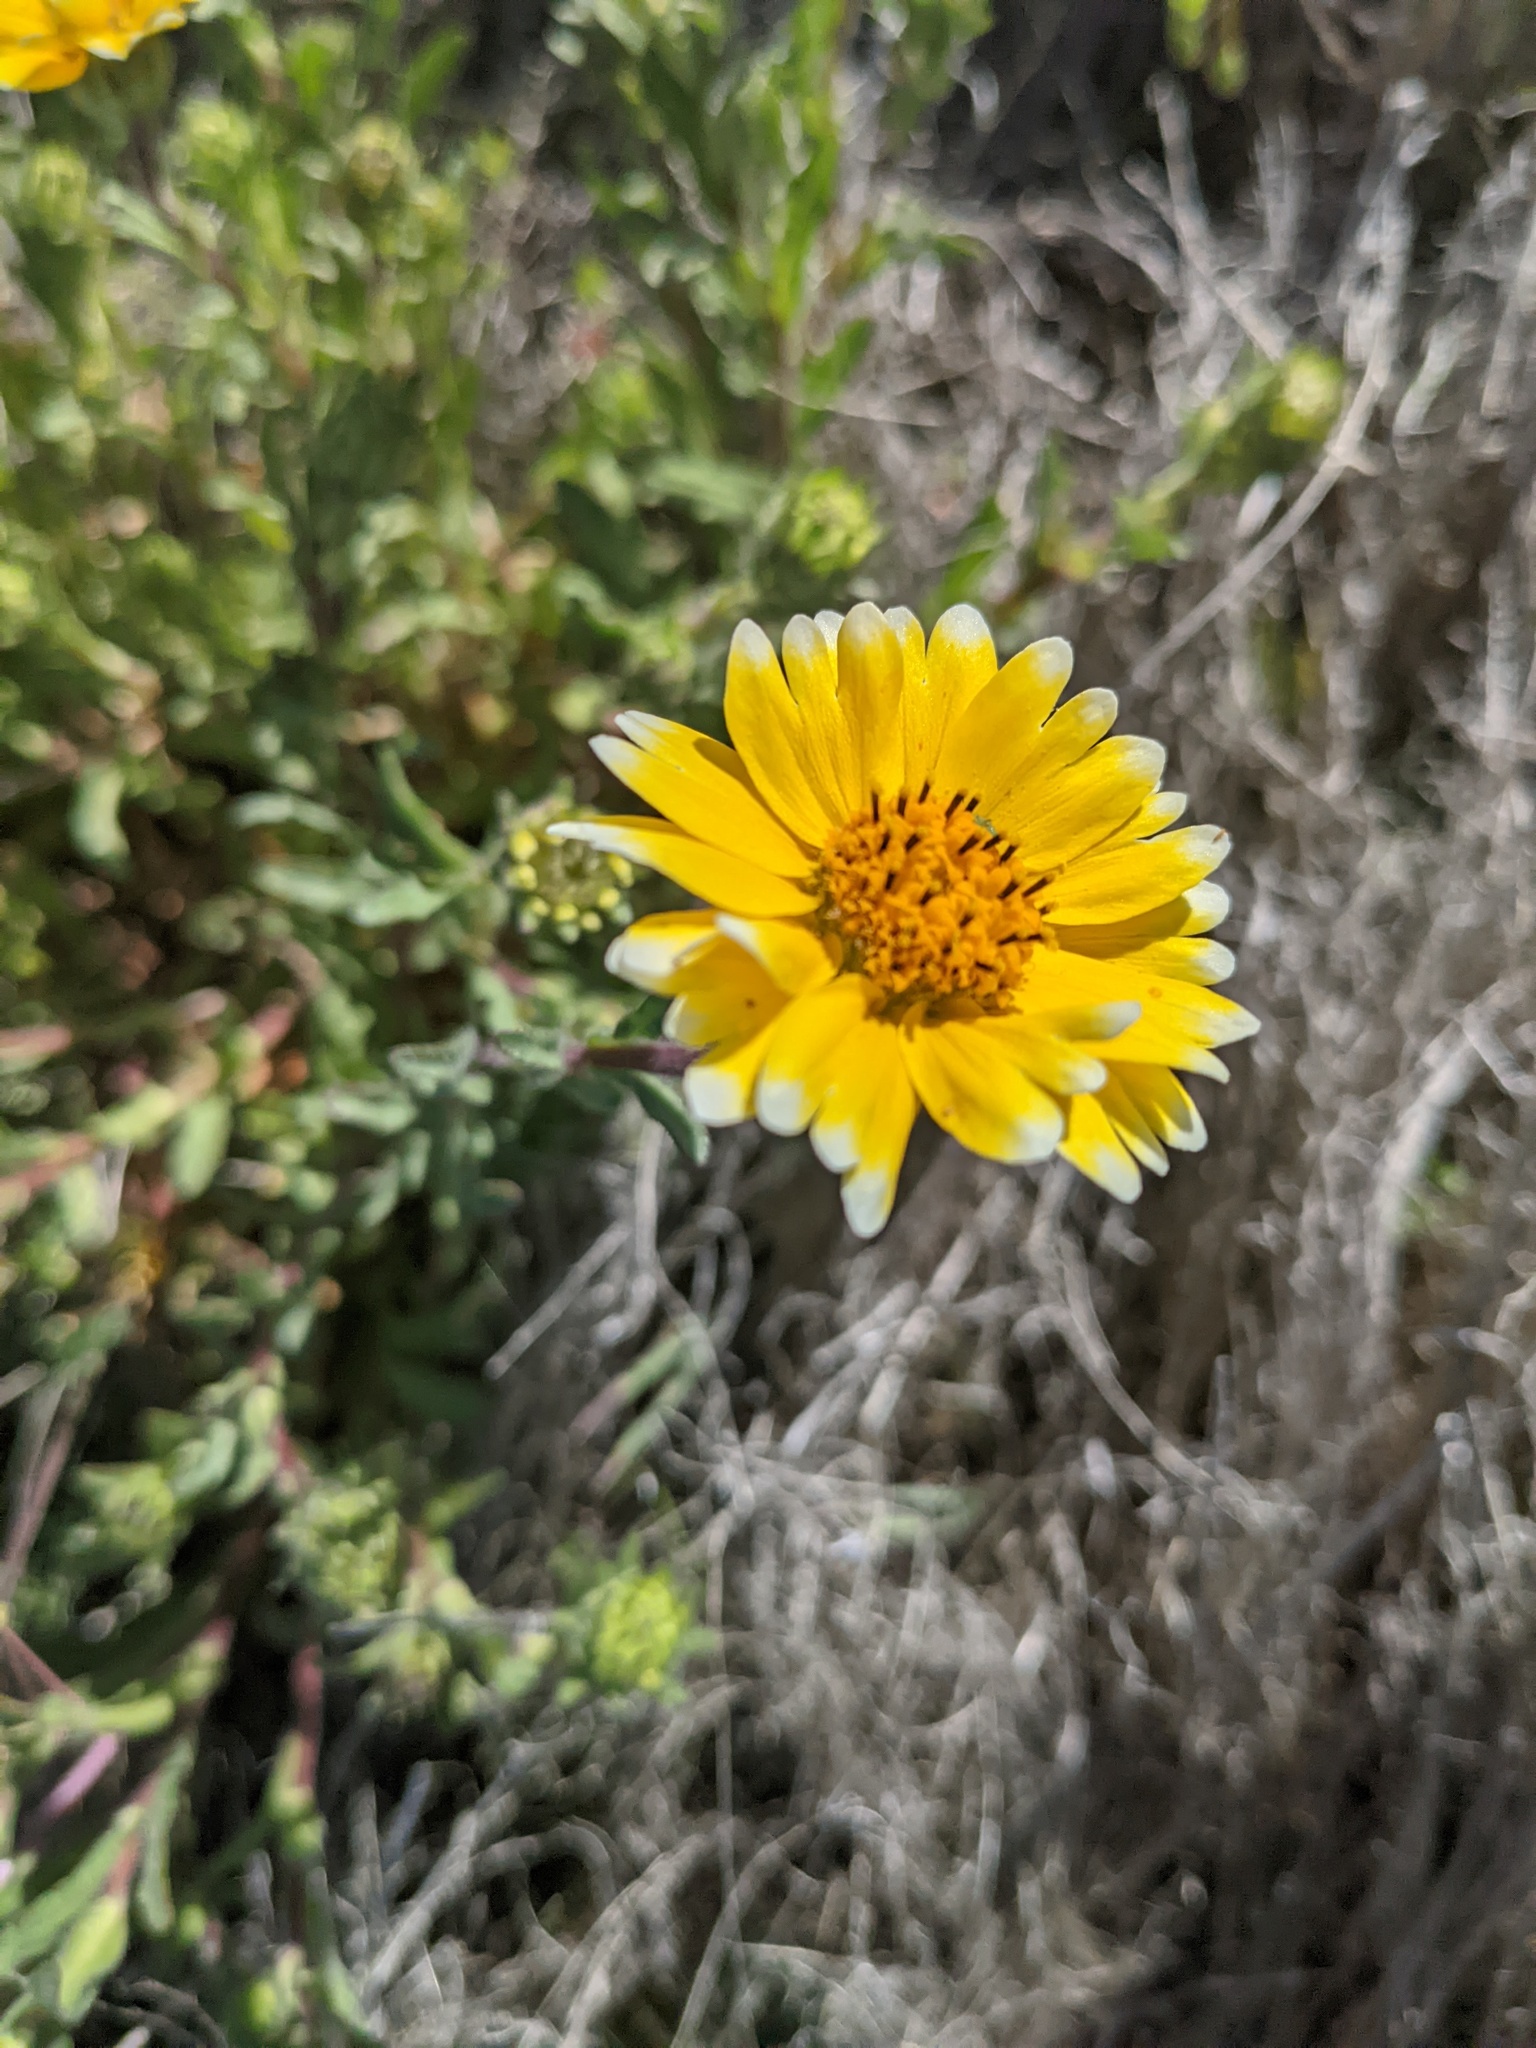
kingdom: Plantae
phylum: Tracheophyta
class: Magnoliopsida
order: Asterales
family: Asteraceae
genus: Layia
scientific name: Layia platyglossa
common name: Tidy-tips
